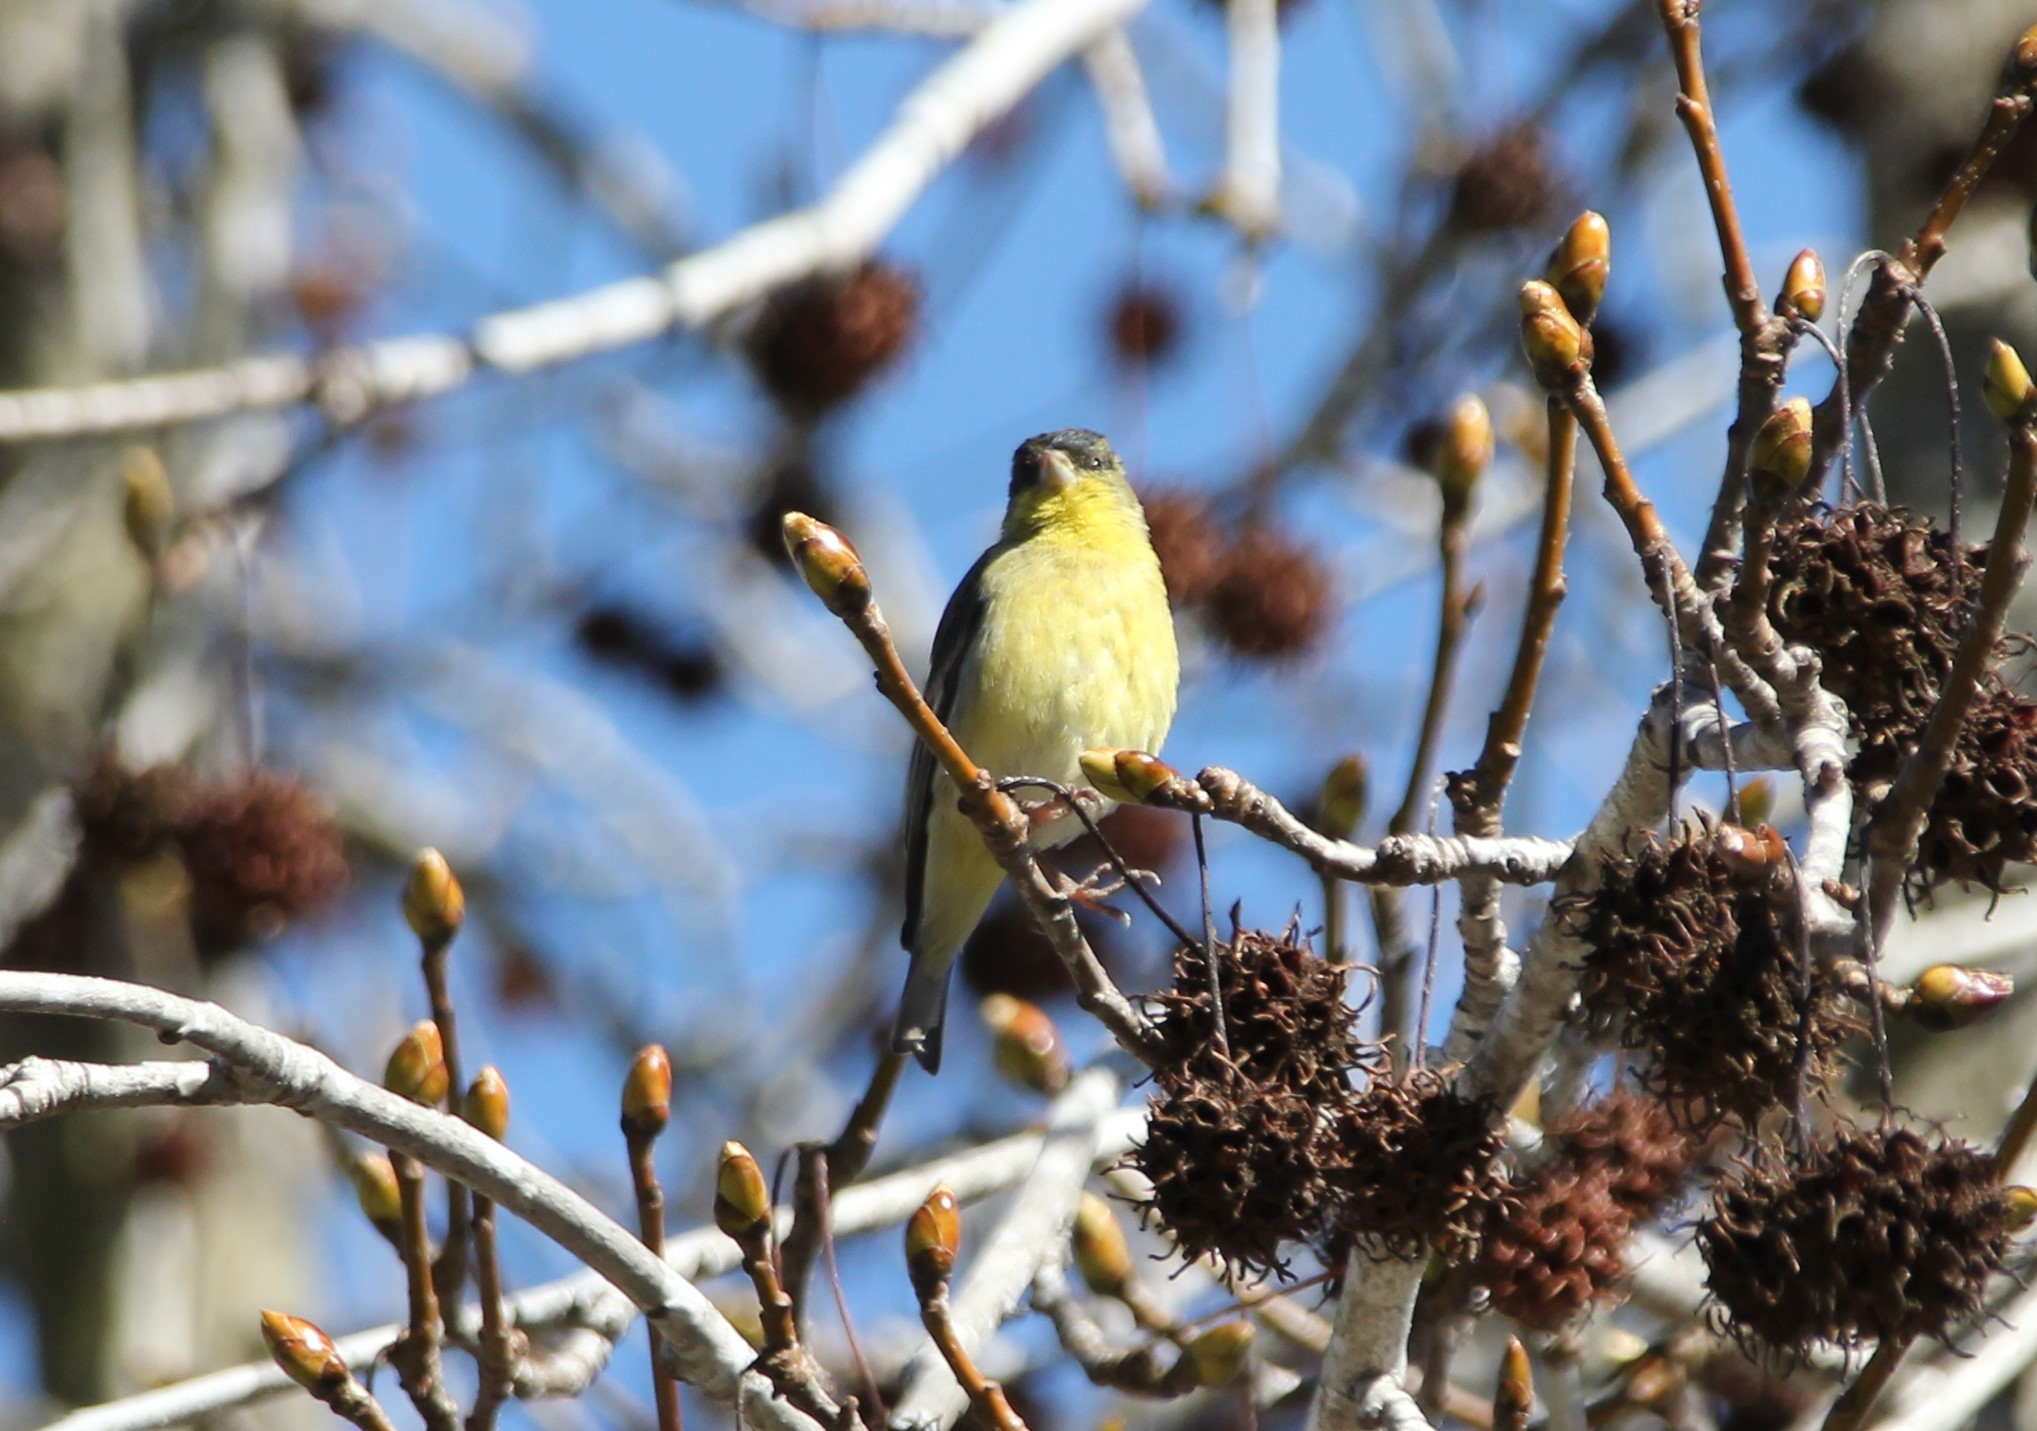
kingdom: Animalia
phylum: Chordata
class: Aves
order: Passeriformes
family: Fringillidae
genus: Spinus
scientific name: Spinus psaltria
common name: Lesser goldfinch
